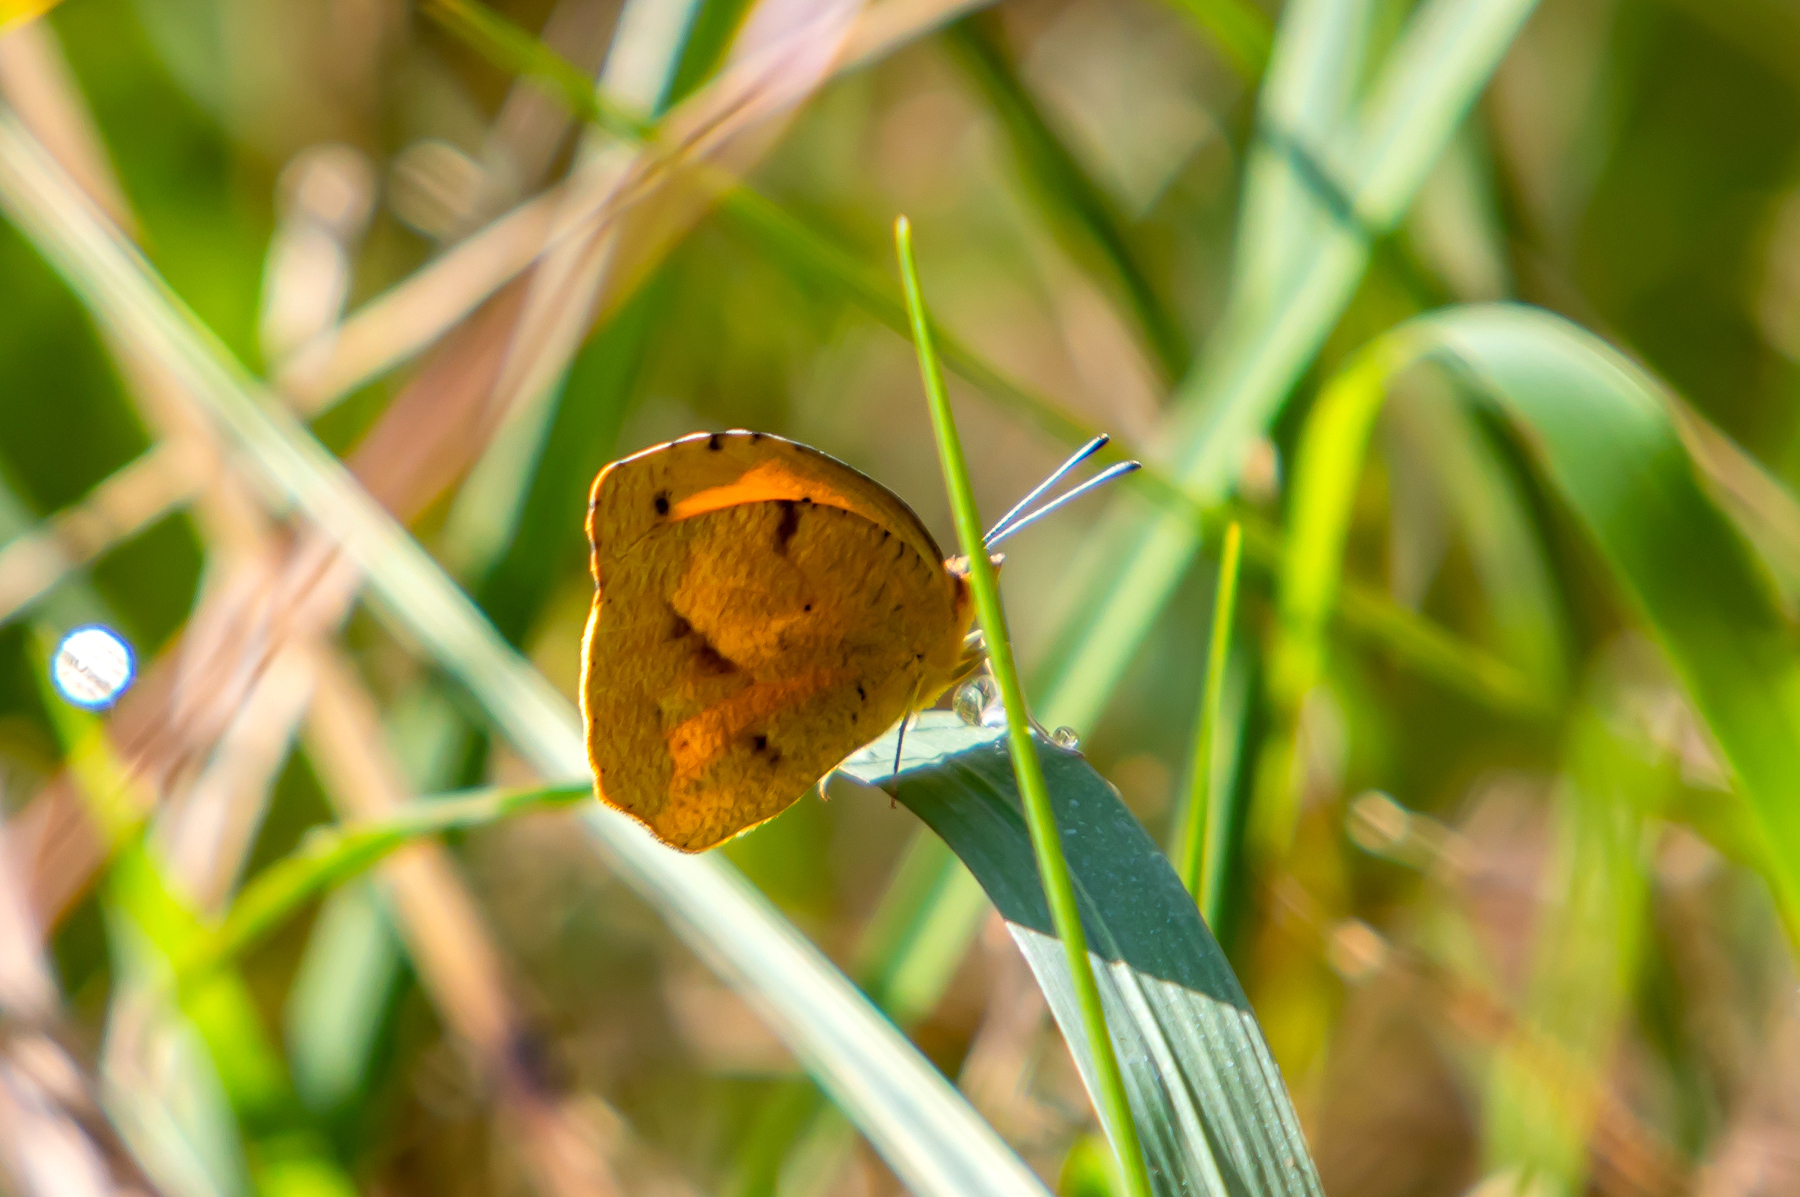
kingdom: Animalia
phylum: Arthropoda
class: Insecta
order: Lepidoptera
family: Pieridae
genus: Abaeis
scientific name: Abaeis nicippe
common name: Sleepy orange
